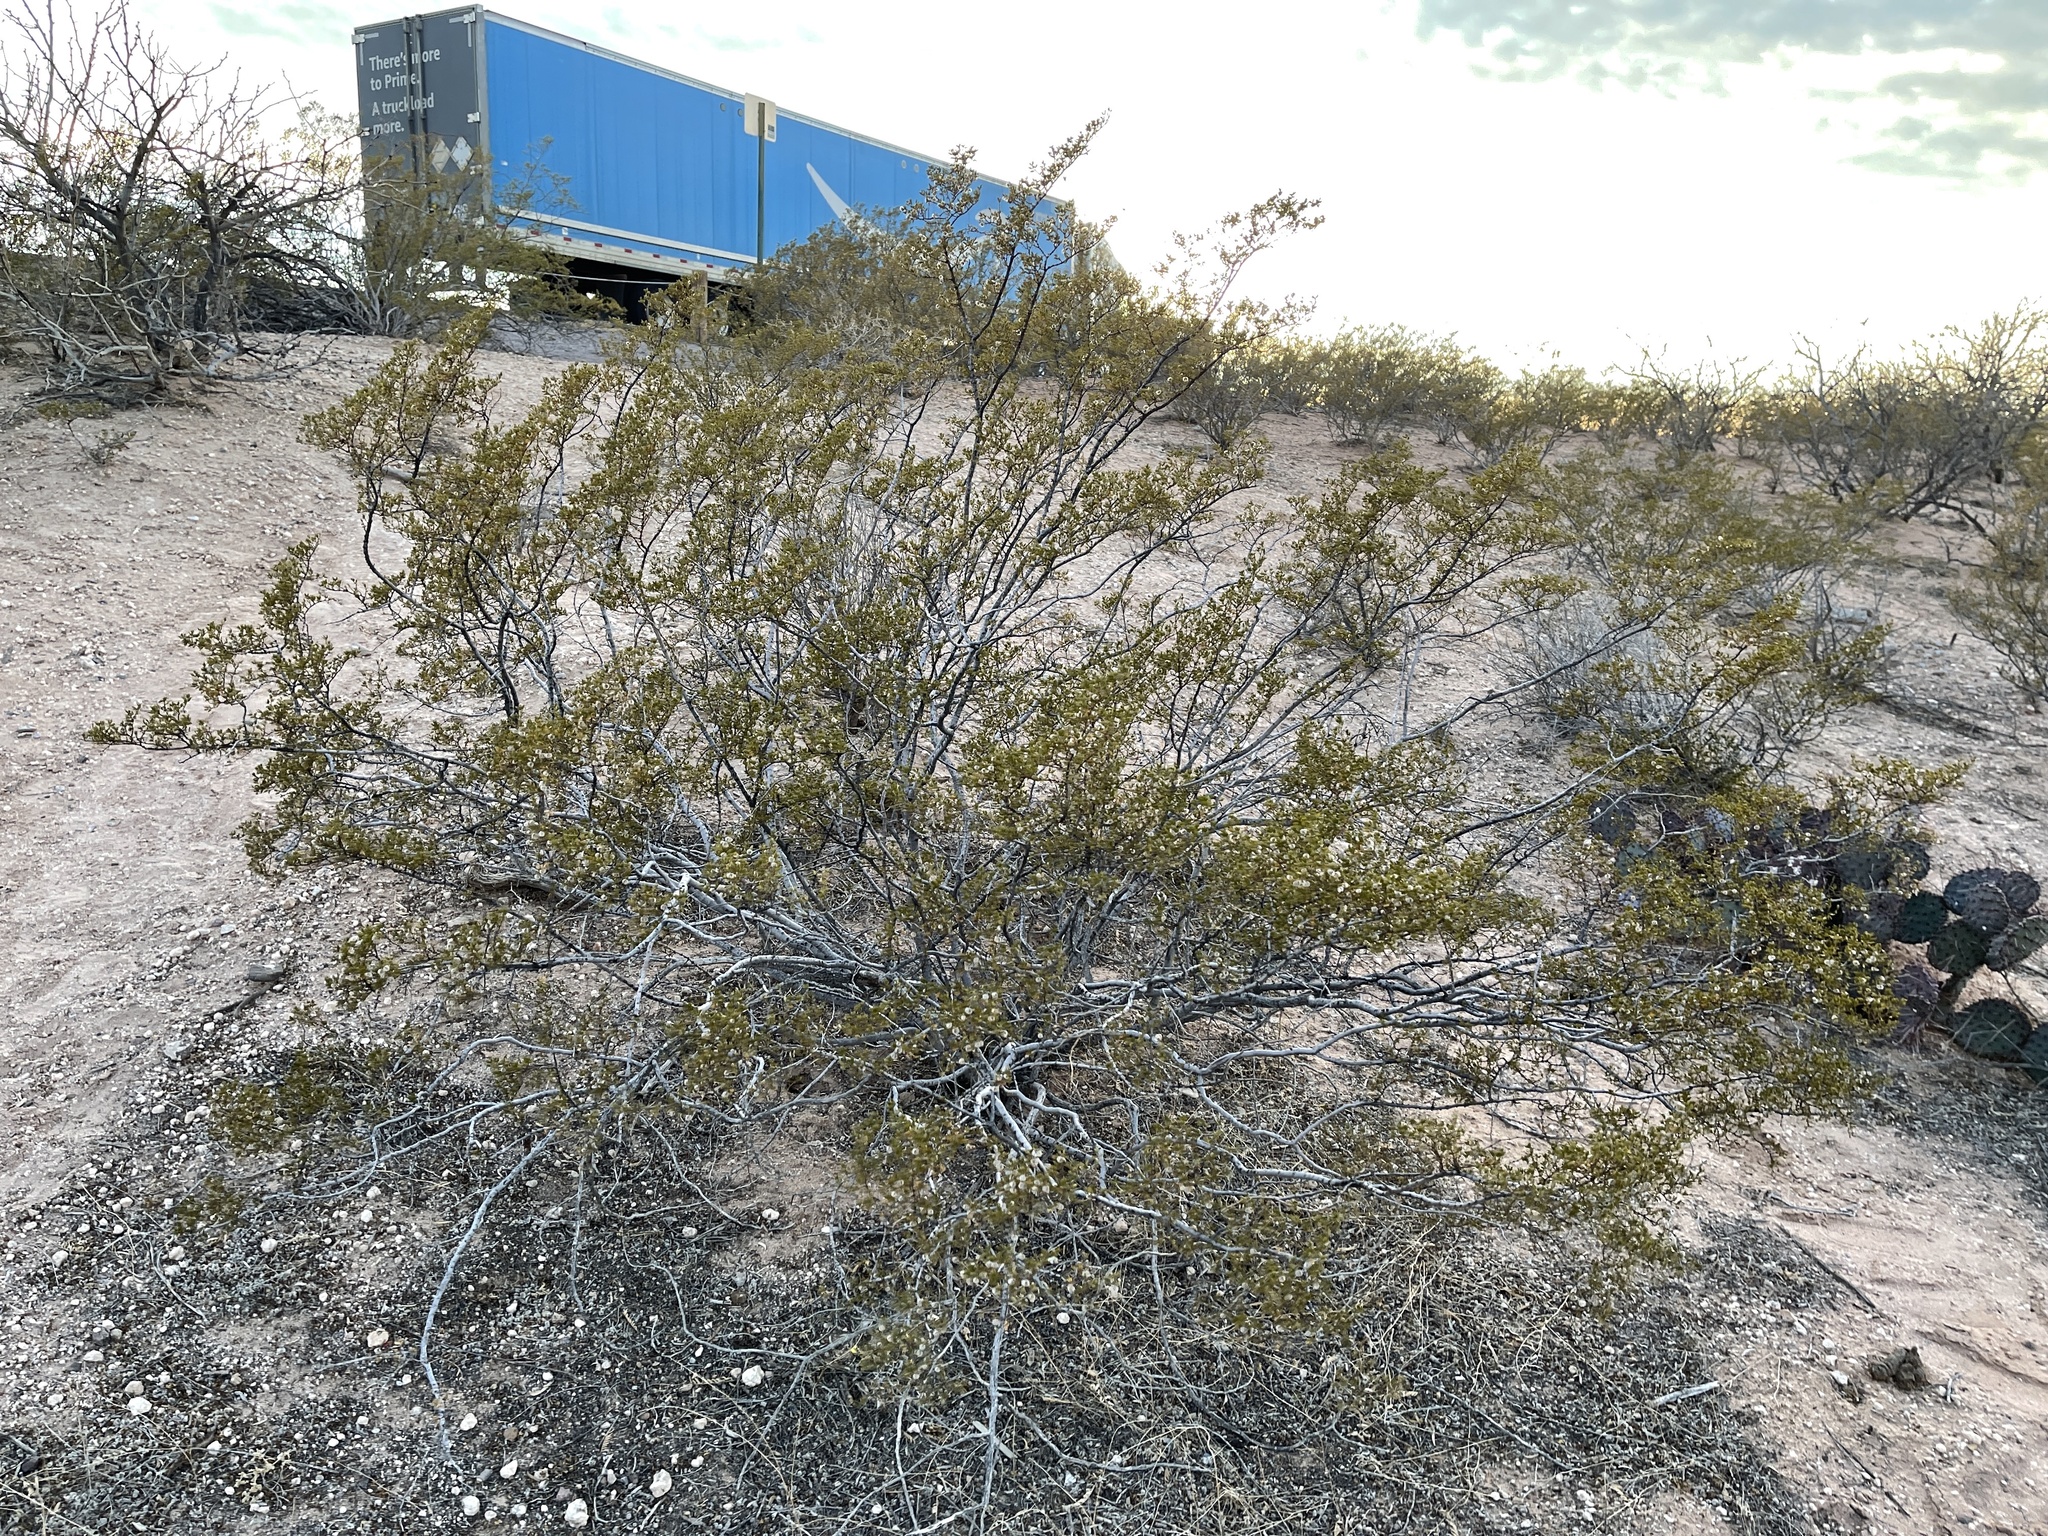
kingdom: Plantae
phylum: Tracheophyta
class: Magnoliopsida
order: Zygophyllales
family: Zygophyllaceae
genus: Larrea
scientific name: Larrea tridentata
